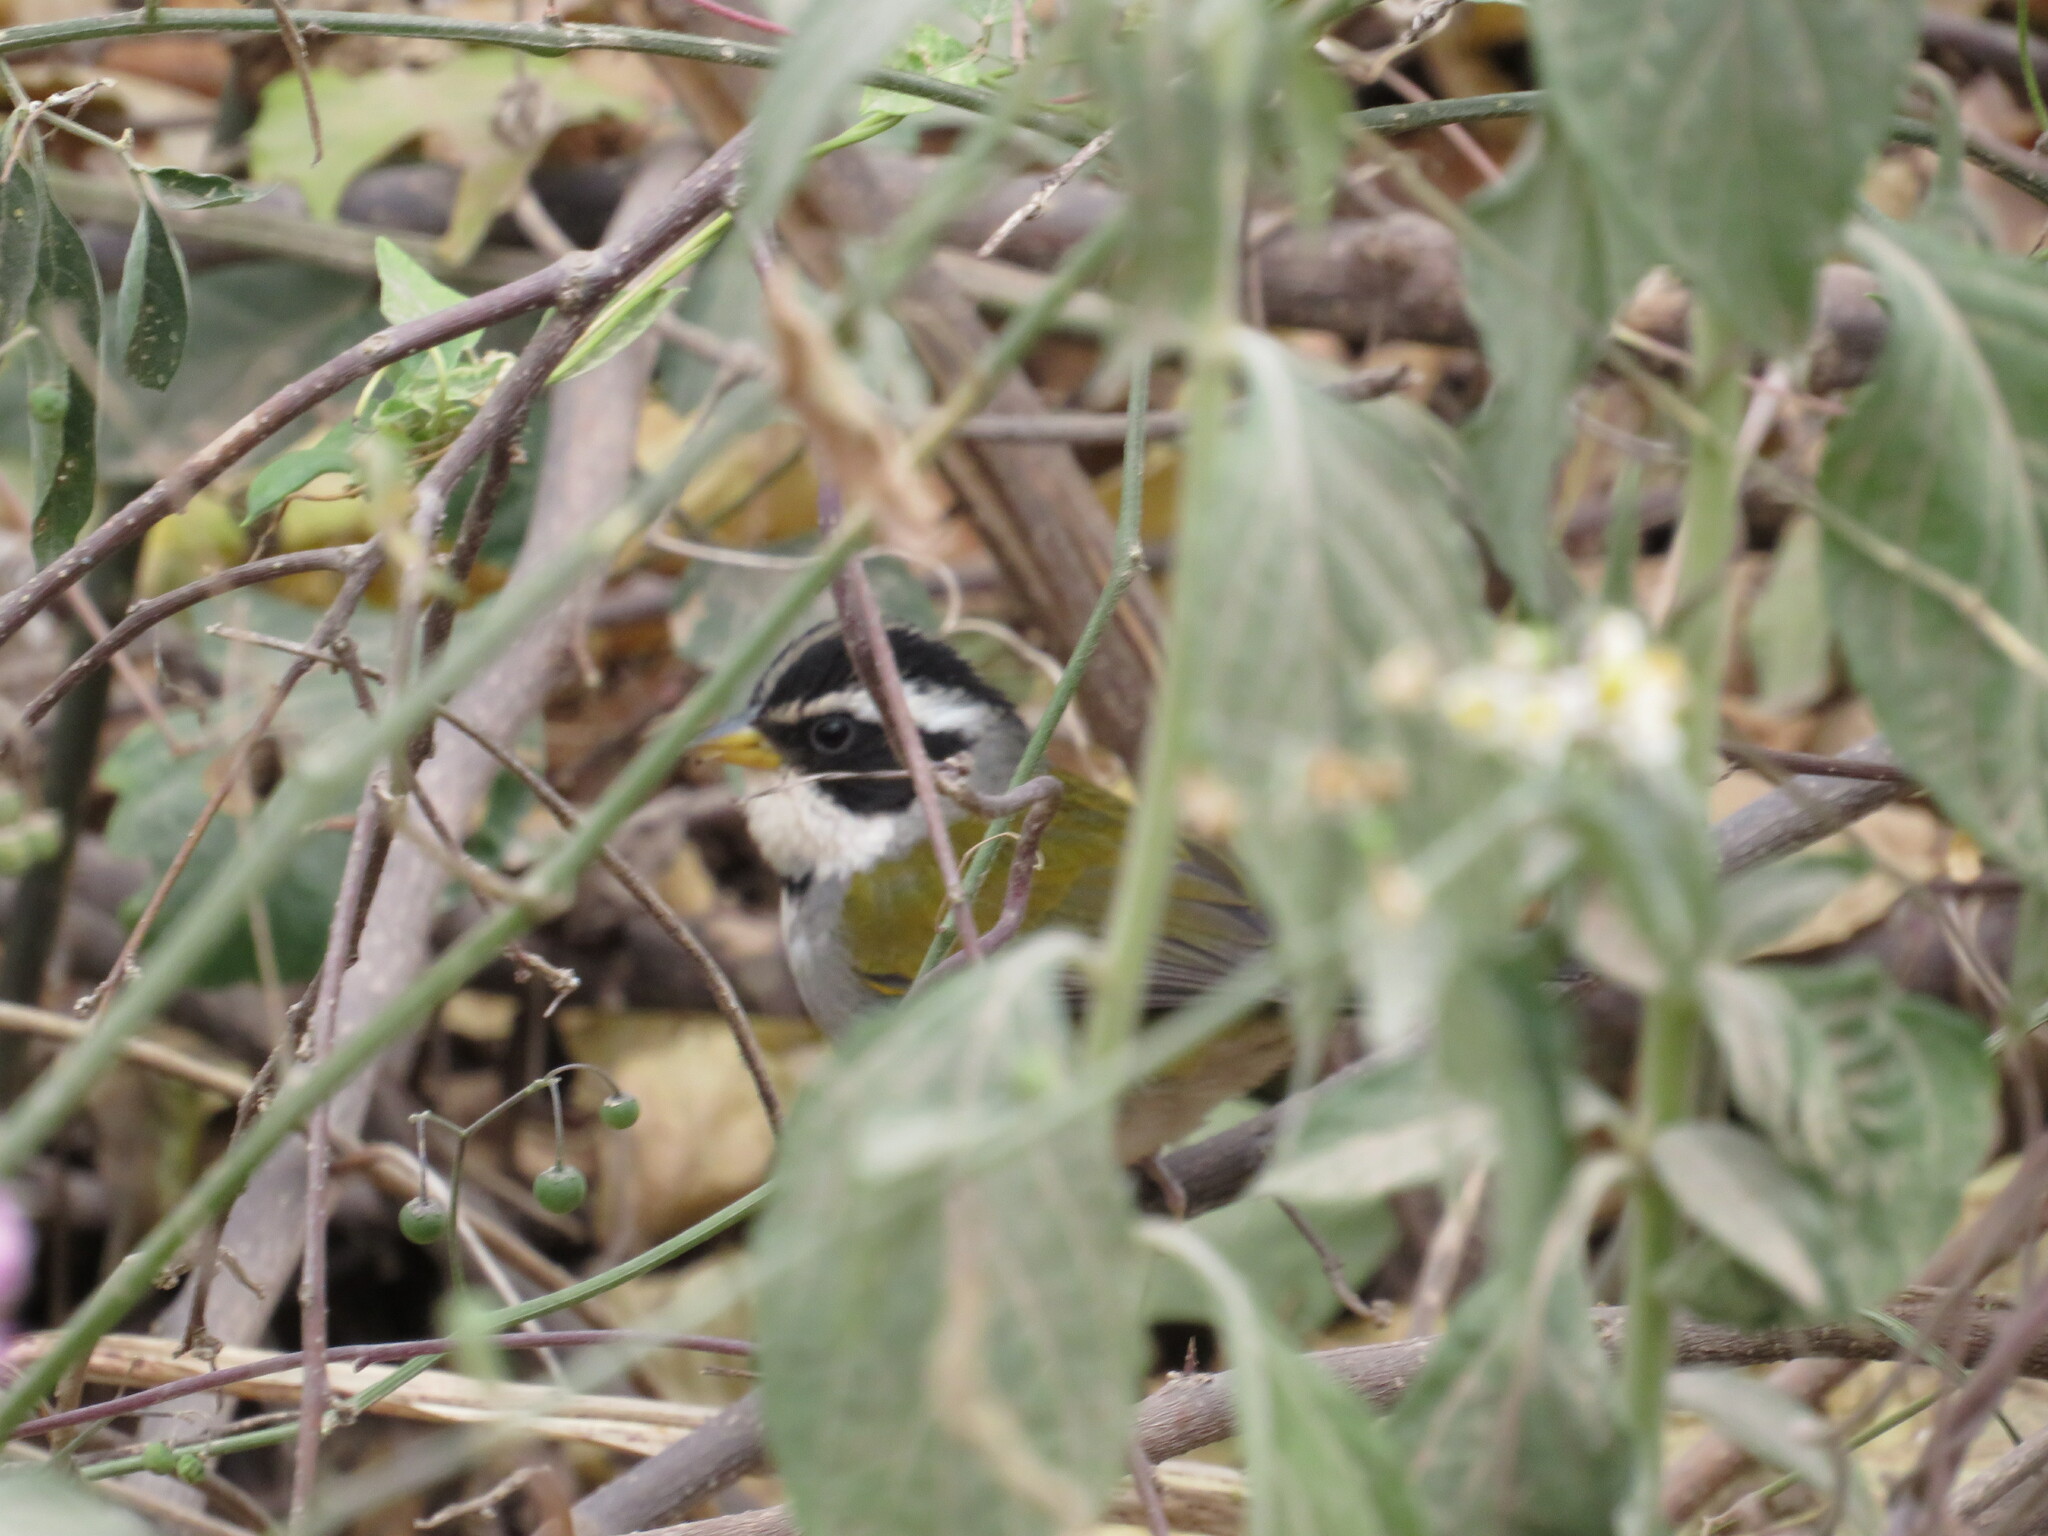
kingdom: Animalia
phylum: Chordata
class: Aves
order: Passeriformes
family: Passerellidae
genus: Arremon
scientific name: Arremon dorbignii
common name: Moss-backed sparrow
